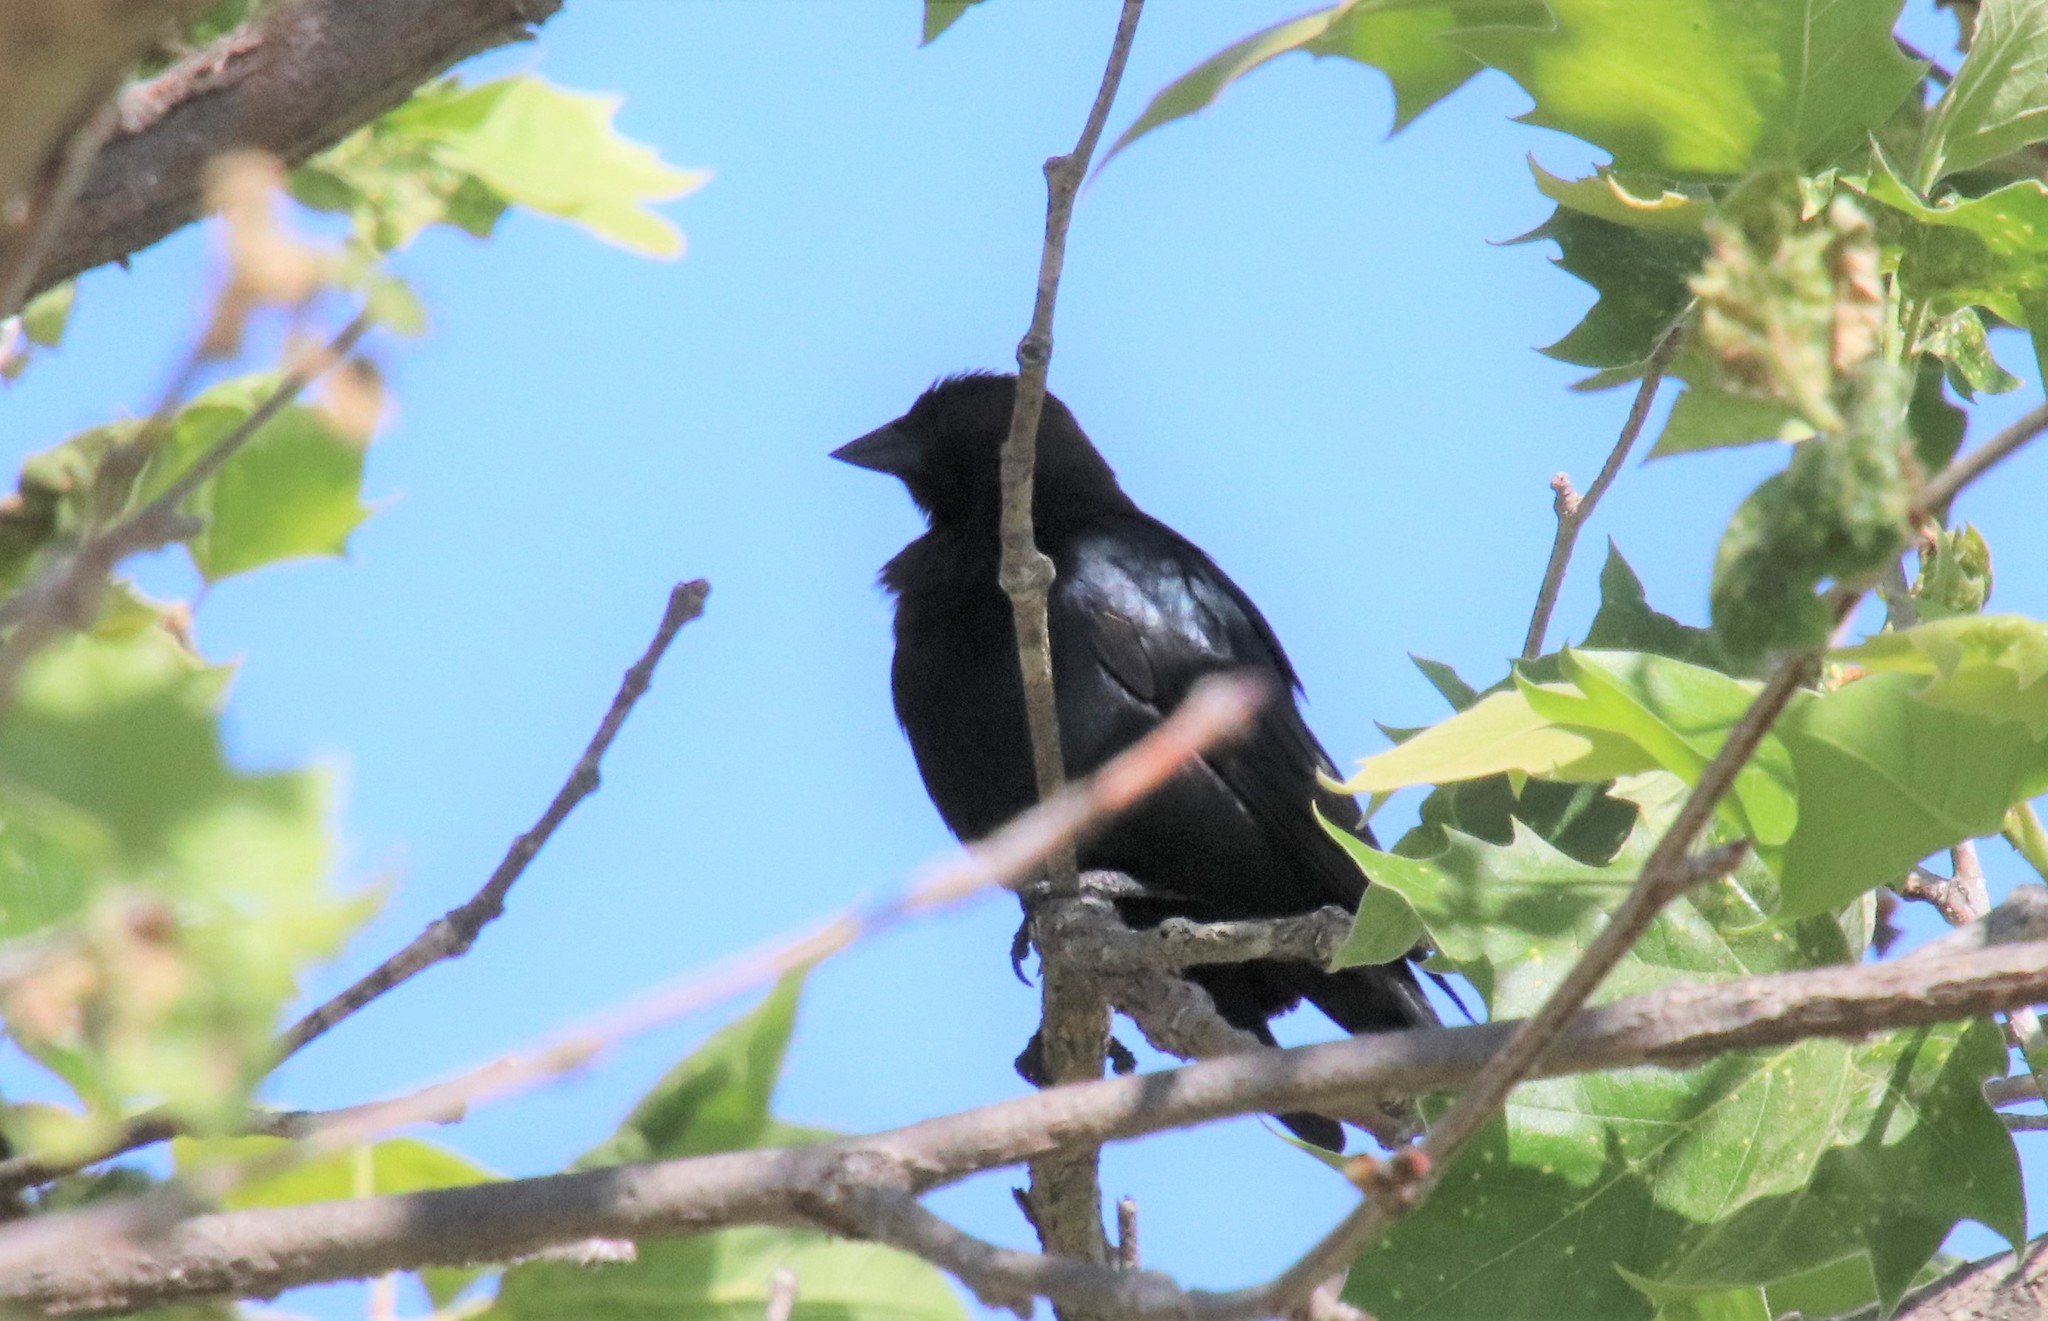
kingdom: Animalia
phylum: Chordata
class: Aves
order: Passeriformes
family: Icteridae
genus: Molothrus
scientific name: Molothrus ater
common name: Brown-headed cowbird
